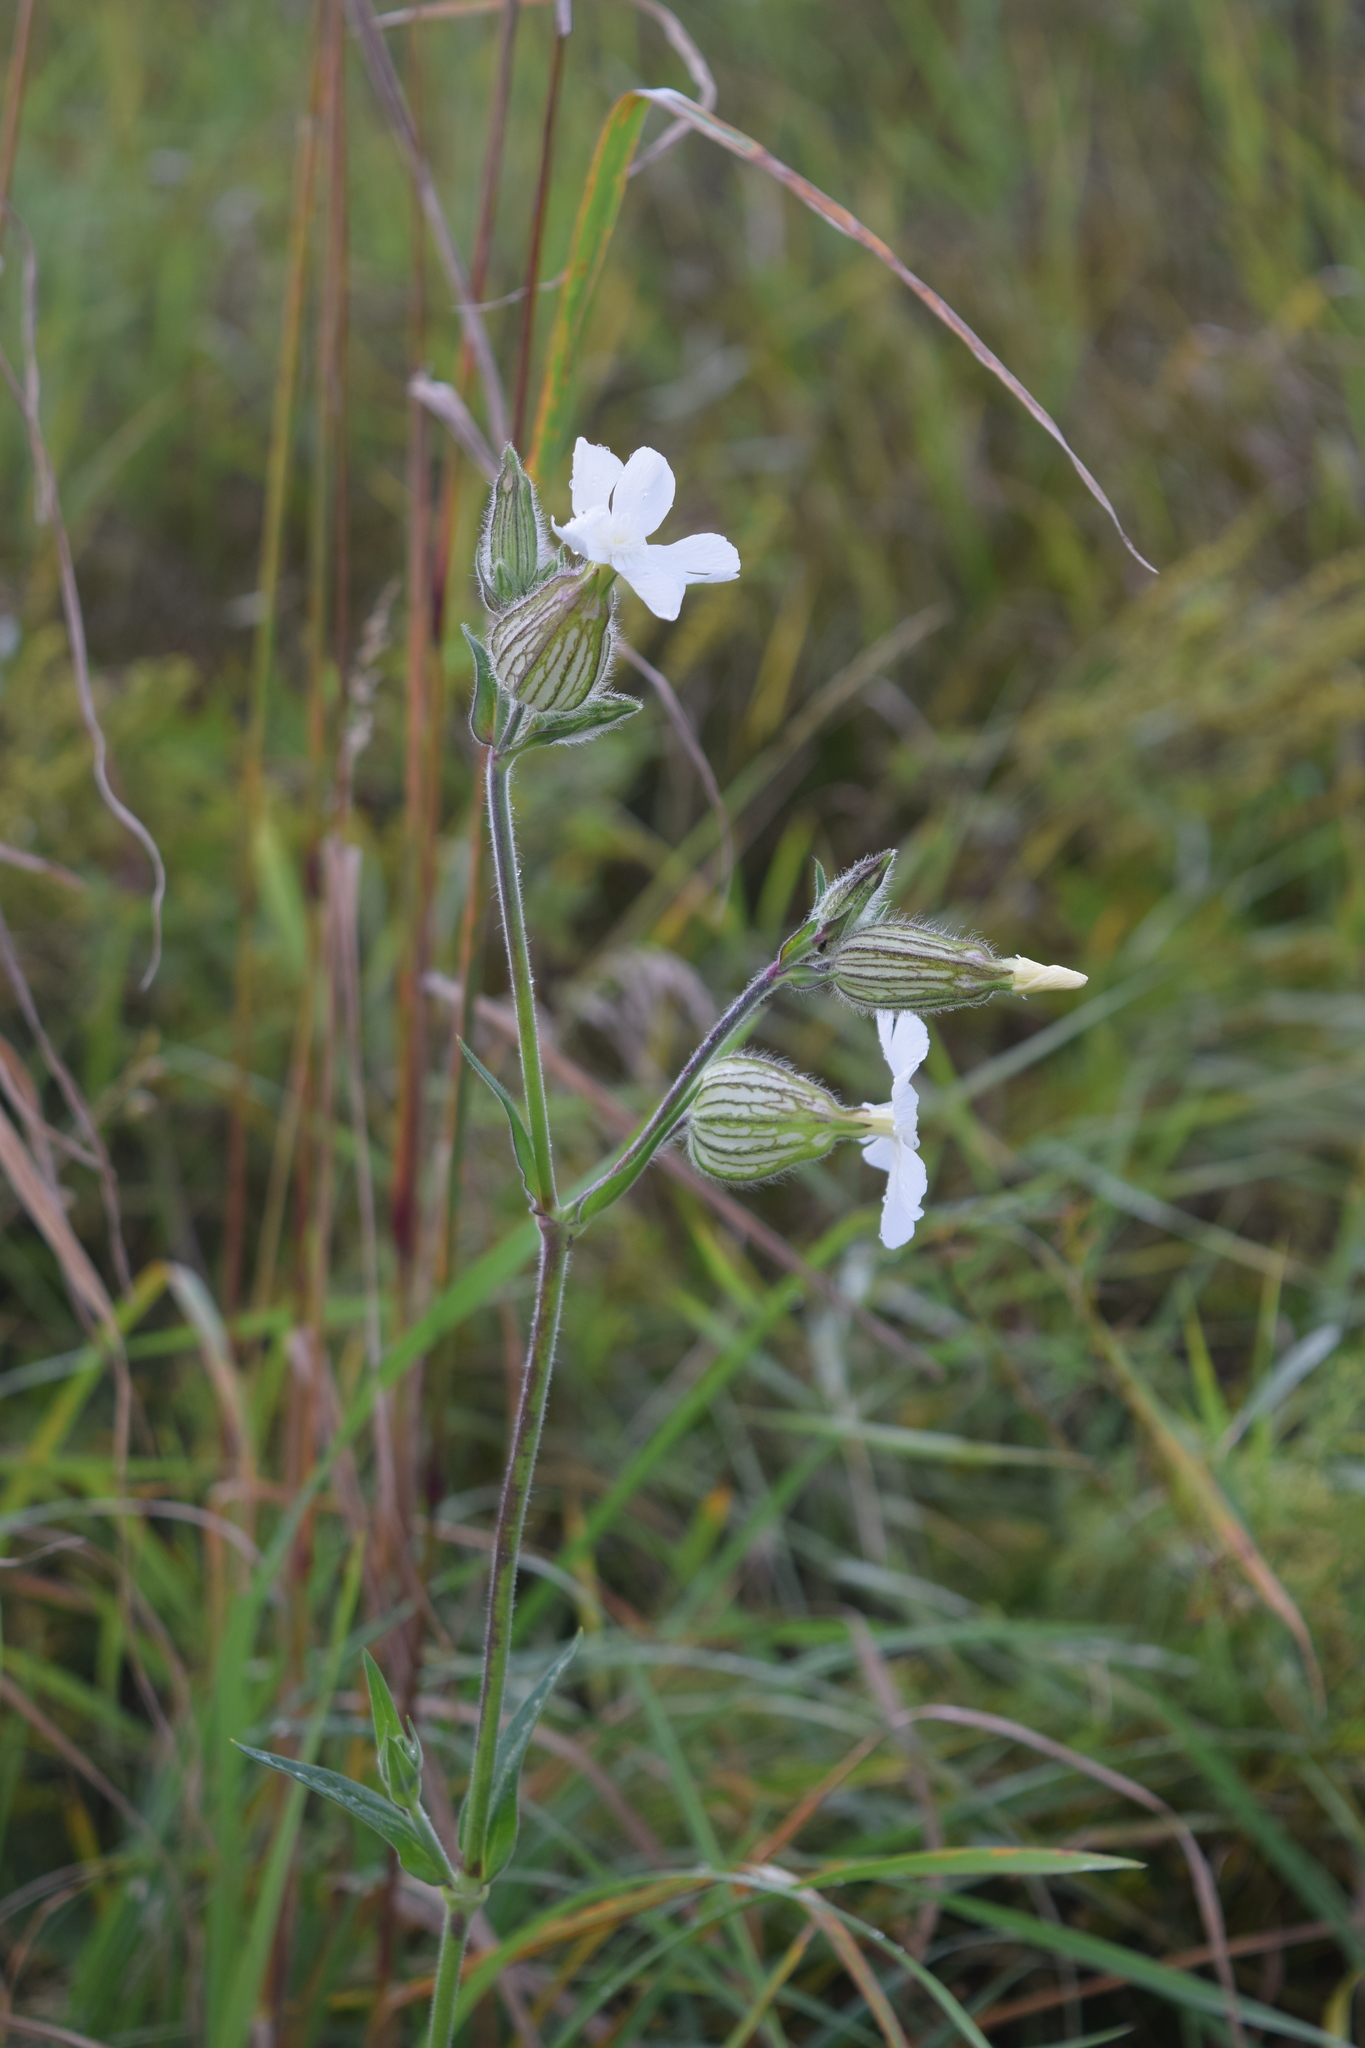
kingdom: Plantae
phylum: Tracheophyta
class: Magnoliopsida
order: Caryophyllales
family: Caryophyllaceae
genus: Silene
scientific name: Silene latifolia
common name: White campion
